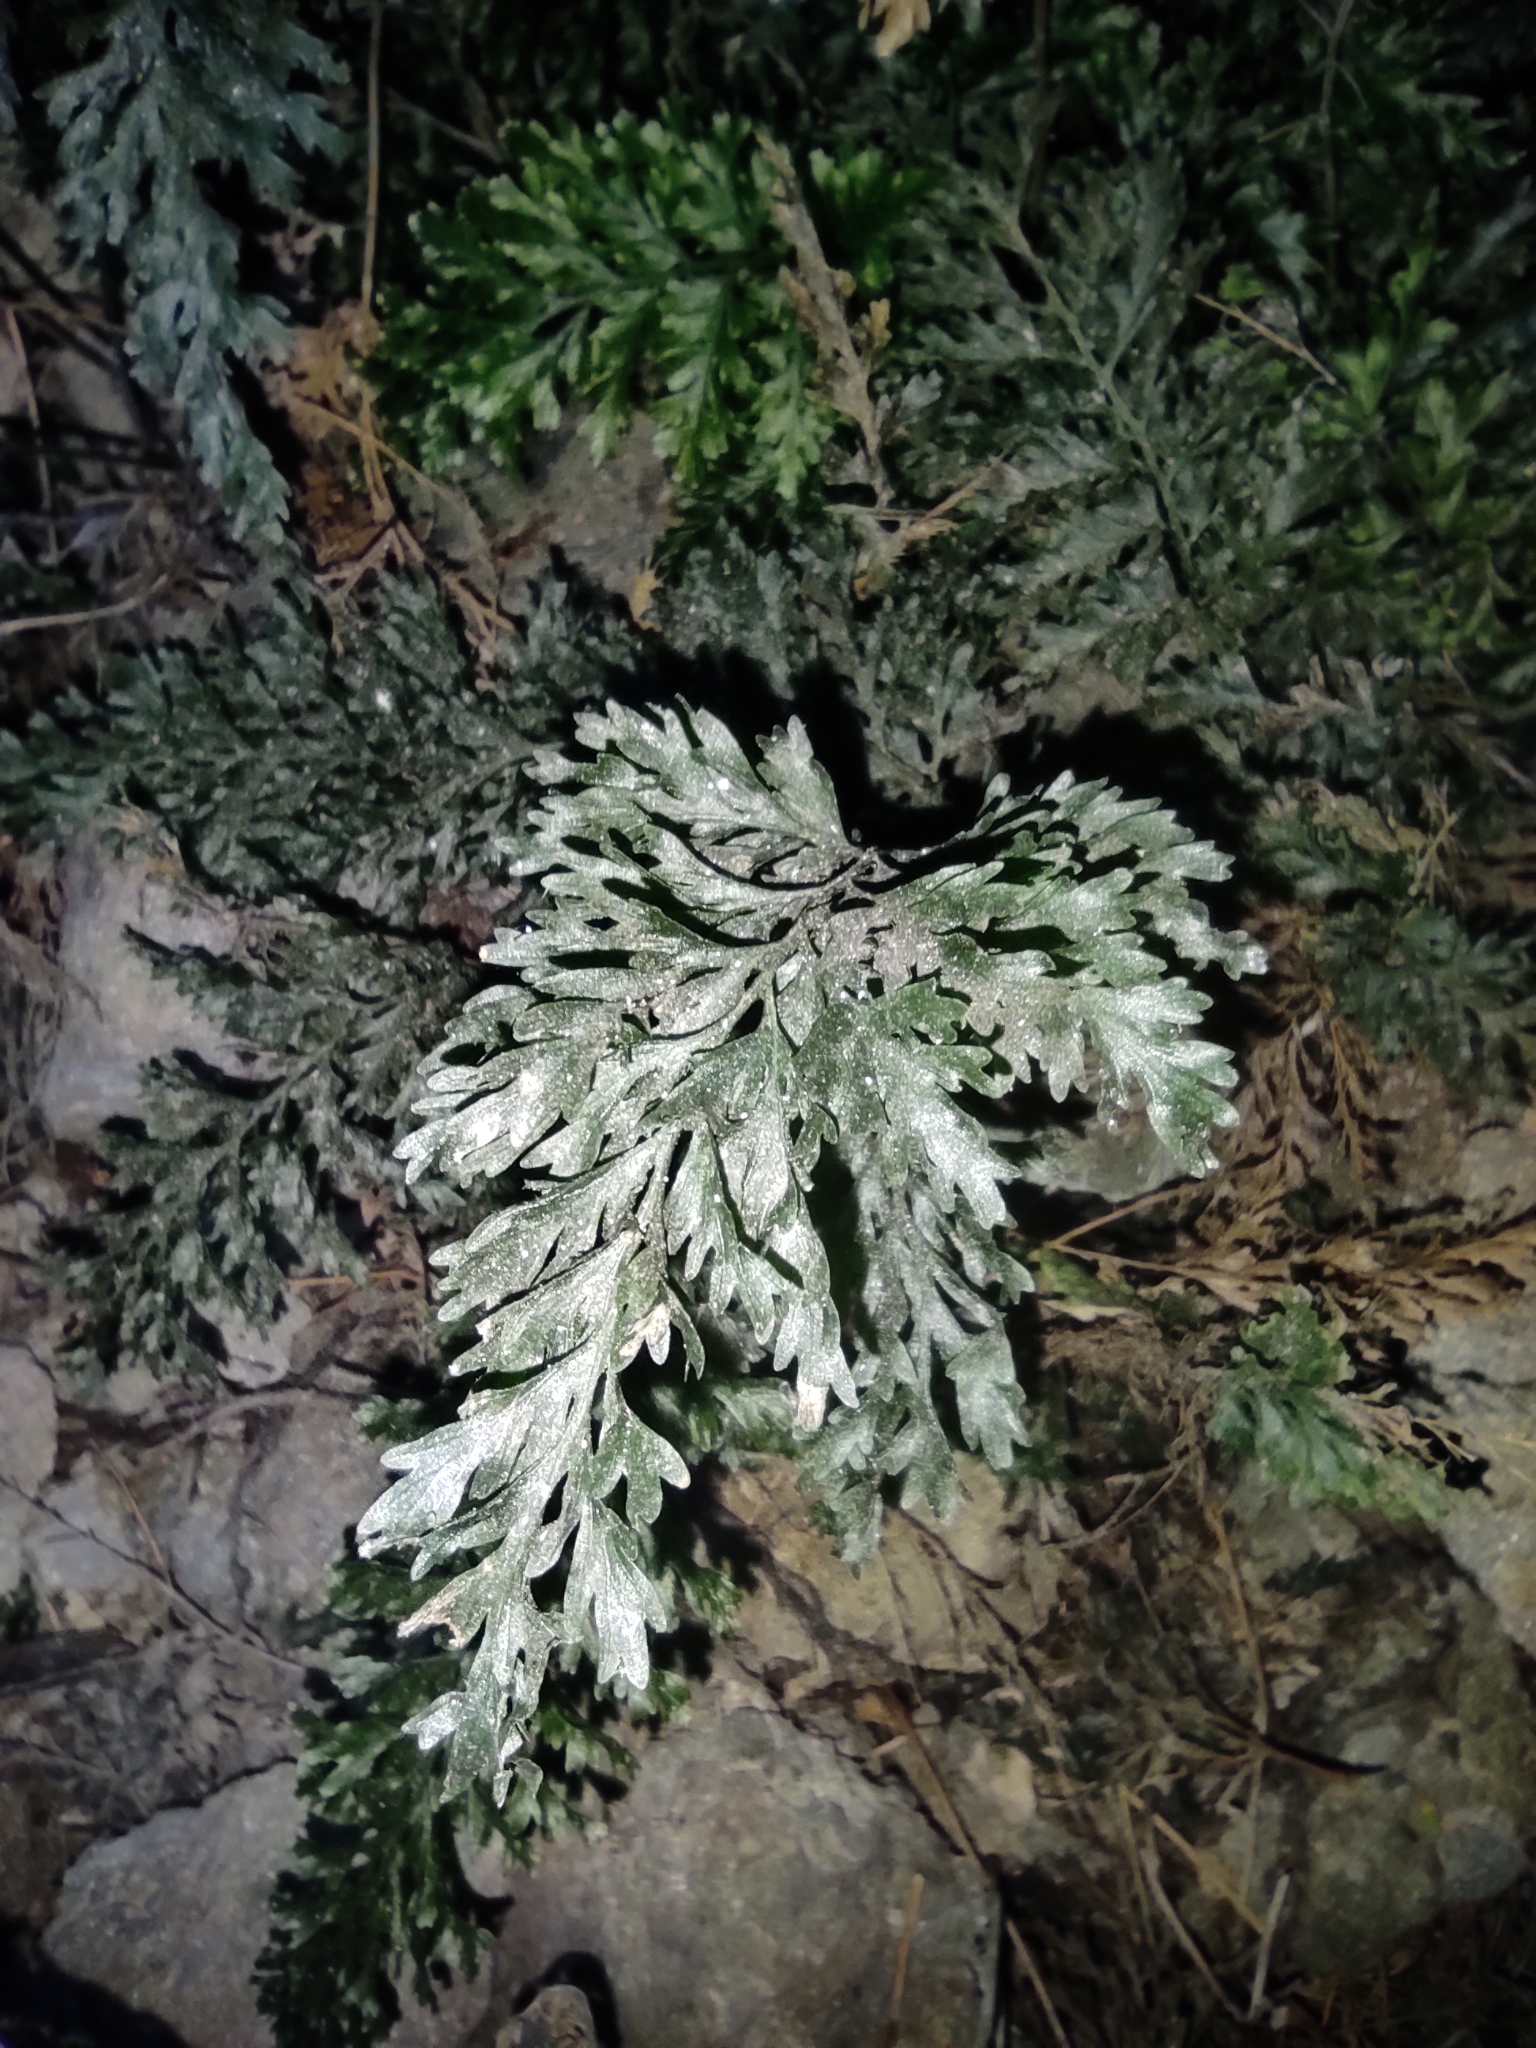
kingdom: Plantae
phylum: Tracheophyta
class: Polypodiopsida
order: Hymenophyllales
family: Hymenophyllaceae
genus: Vandenboschia
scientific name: Vandenboschia speciosa
